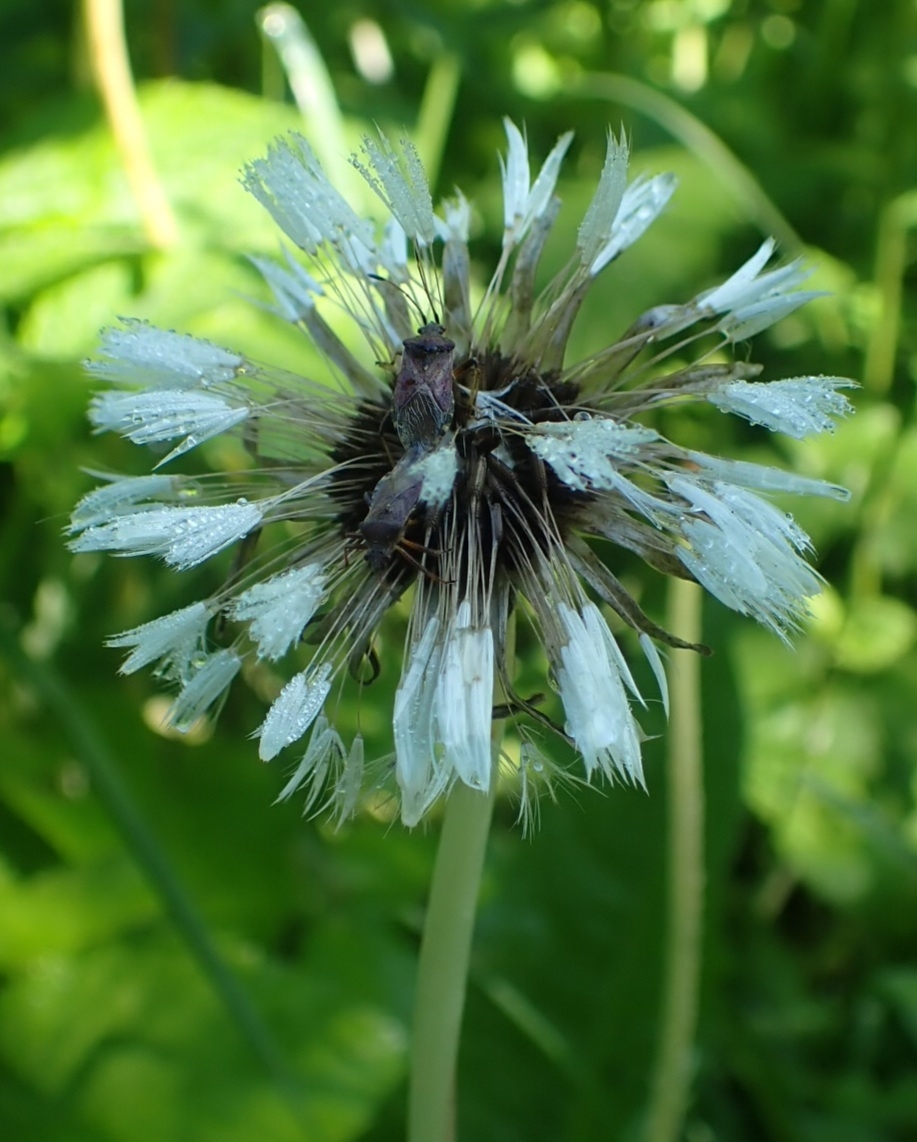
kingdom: Plantae
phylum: Tracheophyta
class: Magnoliopsida
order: Asterales
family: Asteraceae
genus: Taraxacum
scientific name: Taraxacum officinale
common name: Common dandelion
